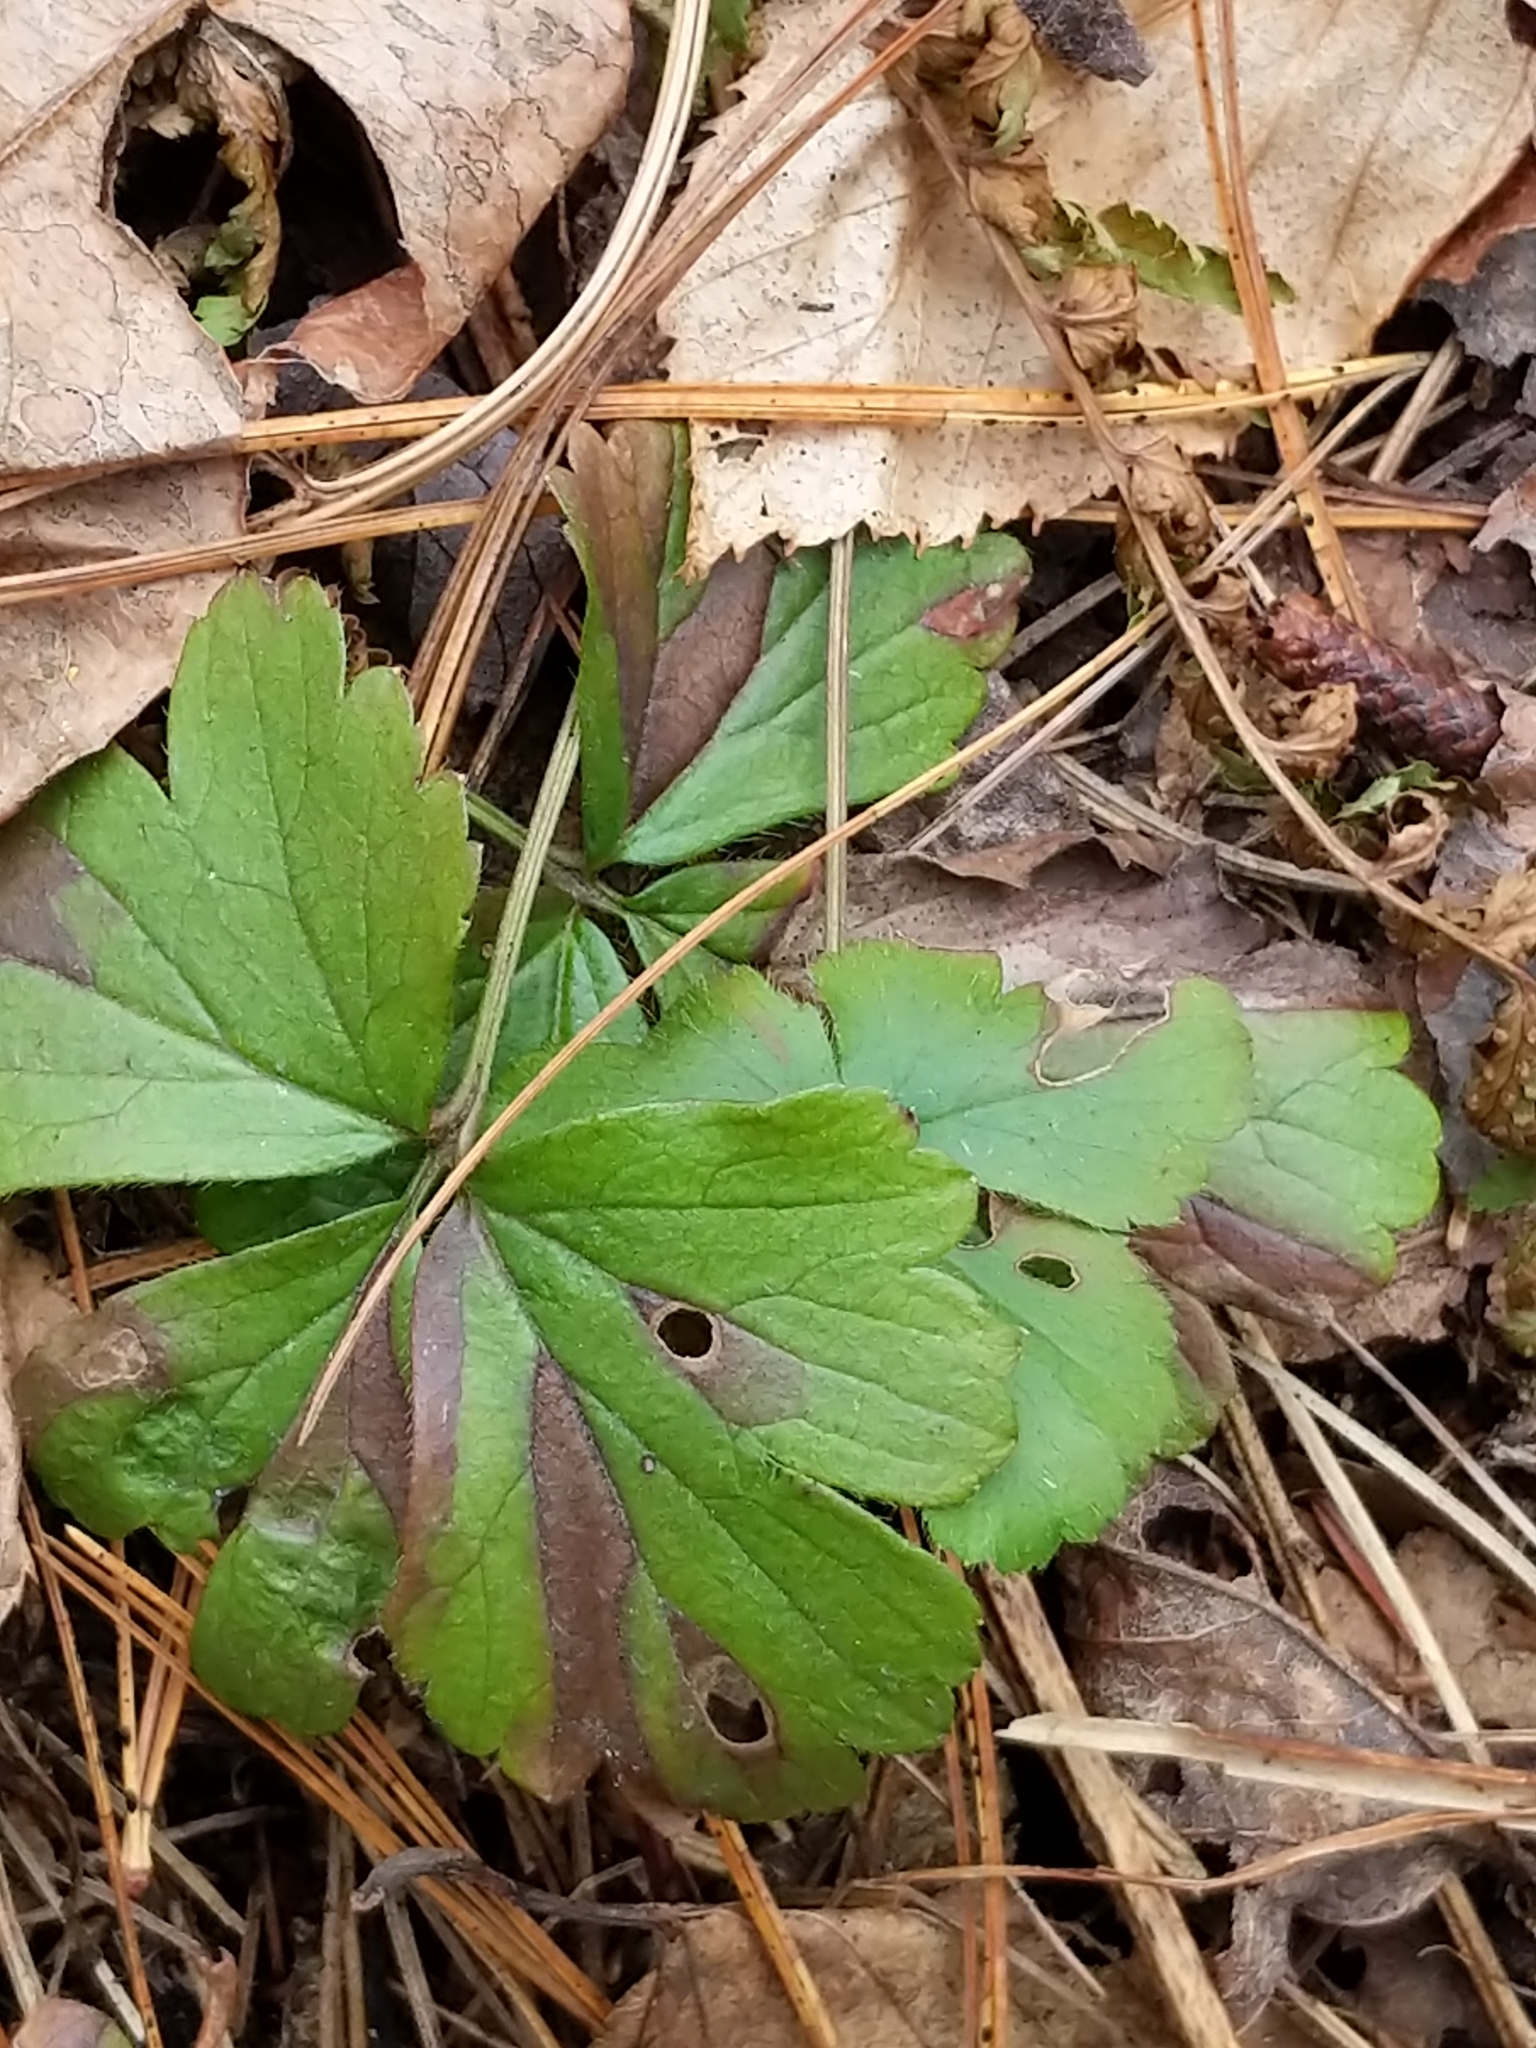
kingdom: Plantae
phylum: Tracheophyta
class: Magnoliopsida
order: Rosales
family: Rosaceae
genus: Geum
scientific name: Geum fragarioides
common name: Appalachian barren strawberry
